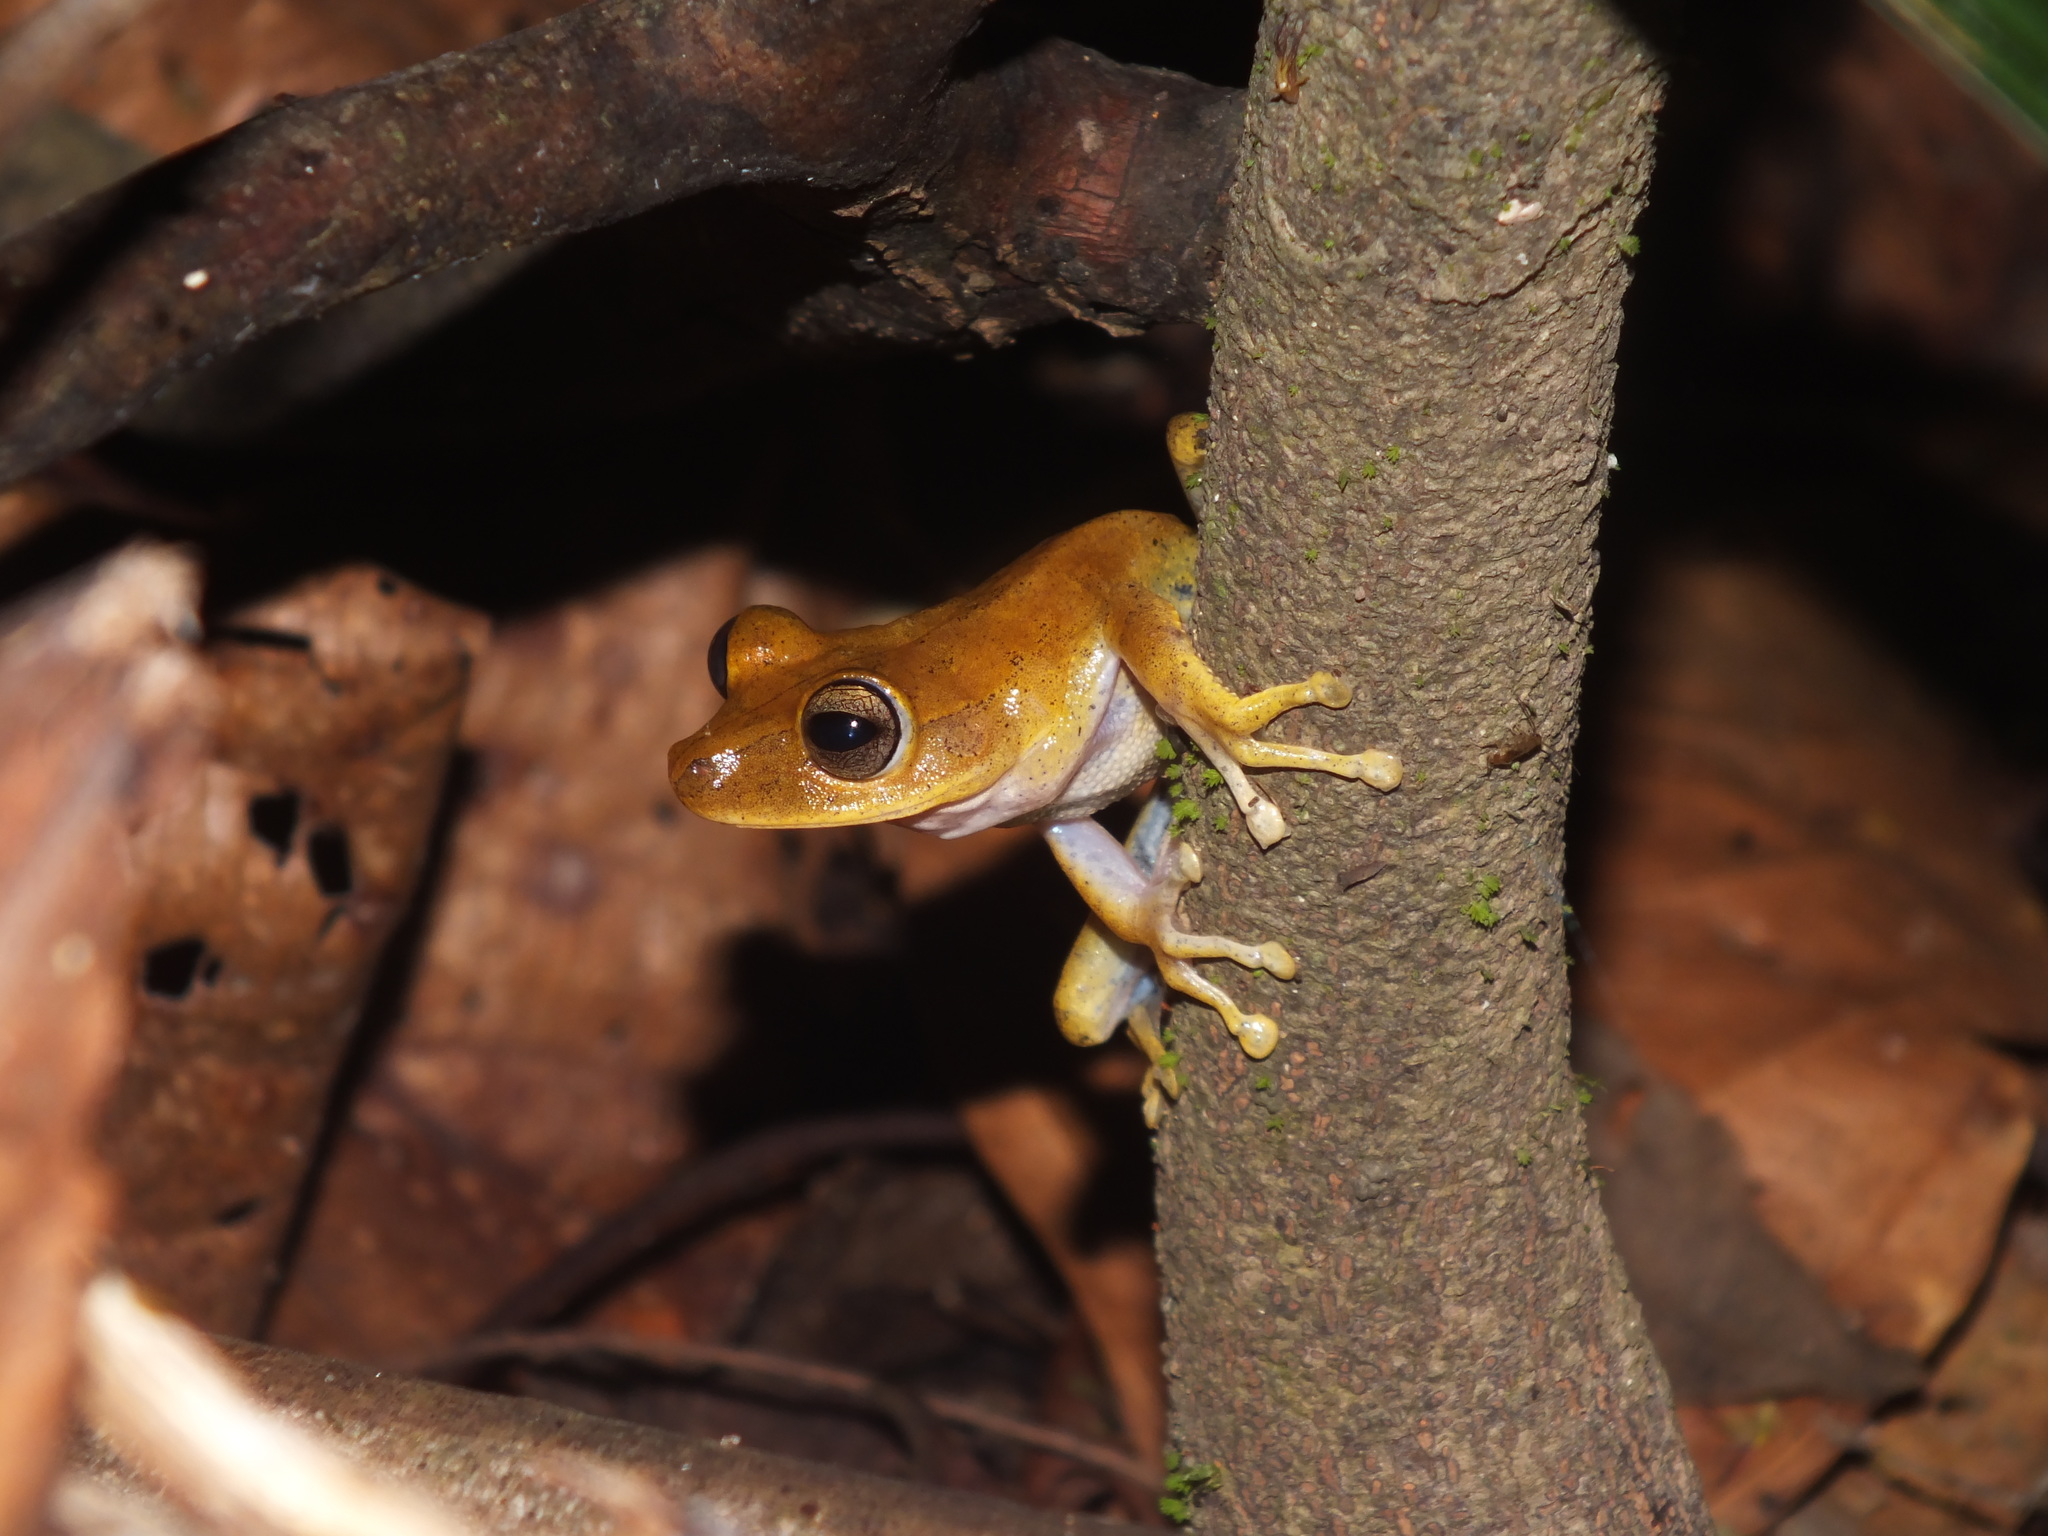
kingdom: Animalia
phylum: Chordata
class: Amphibia
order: Anura
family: Hylidae
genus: Boana
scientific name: Boana geographica
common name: Map treefrog
